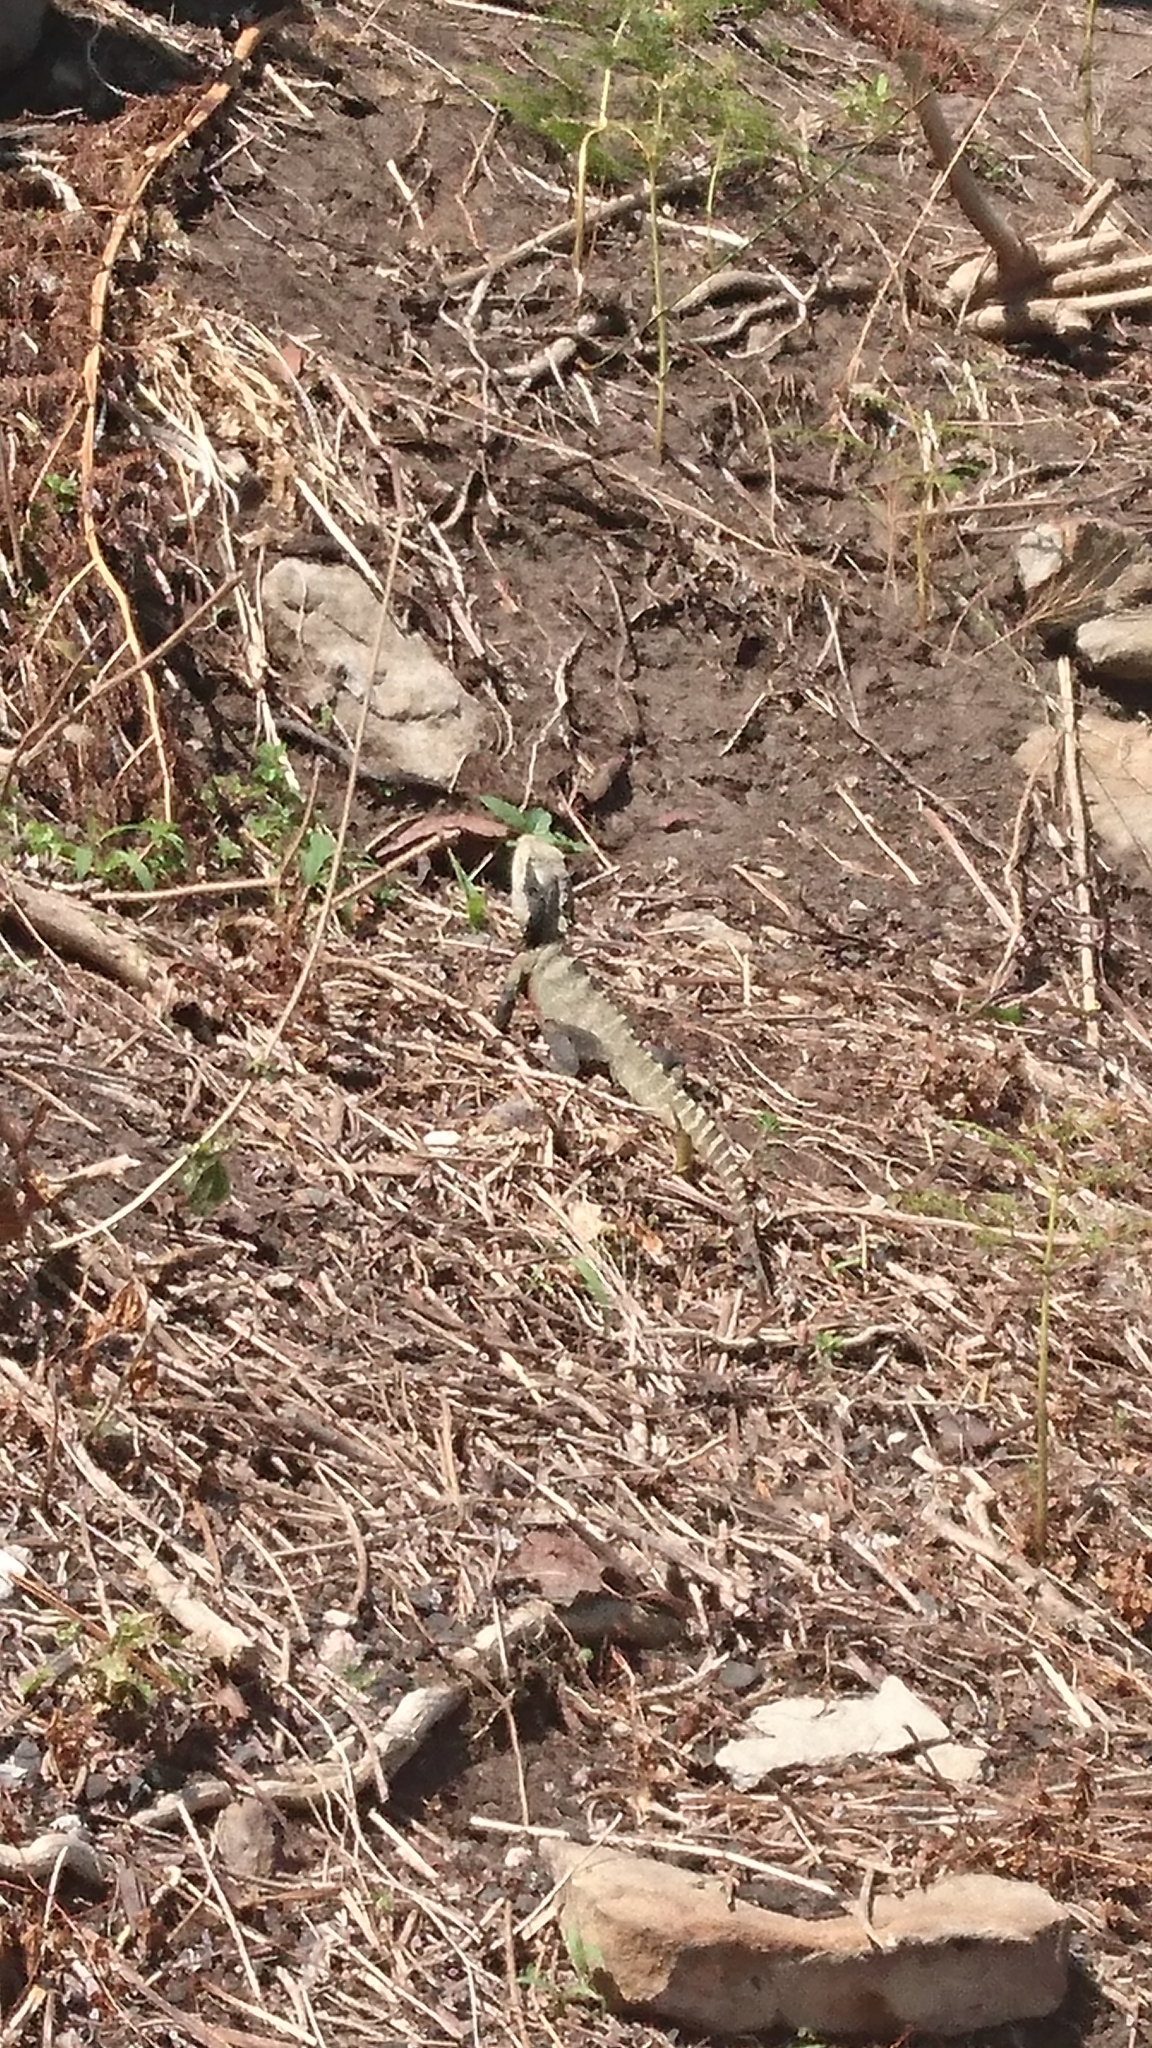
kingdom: Animalia
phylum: Chordata
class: Squamata
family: Agamidae
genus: Intellagama
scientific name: Intellagama lesueurii
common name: Eastern water dragon
